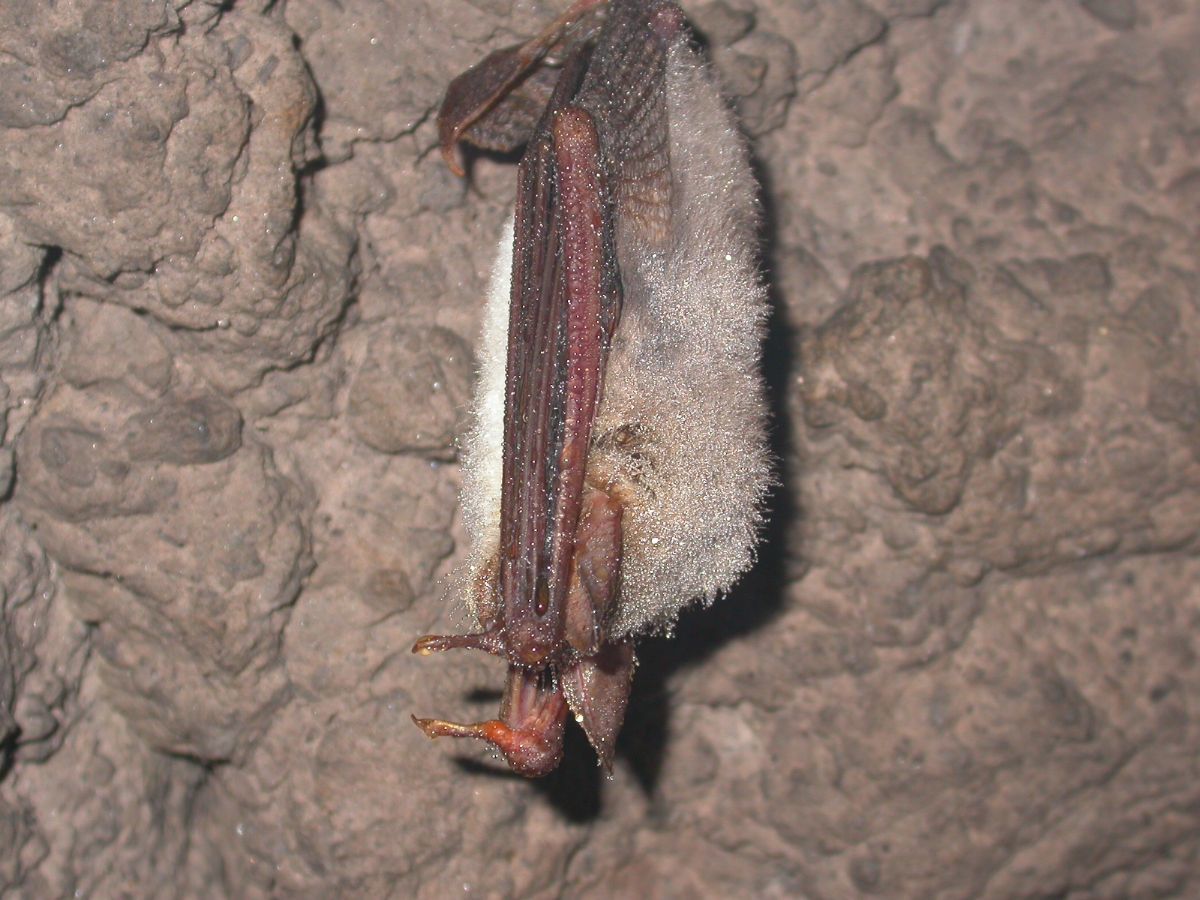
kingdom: Animalia
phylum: Chordata
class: Mammalia
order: Chiroptera
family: Vespertilionidae
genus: Myotis
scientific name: Myotis myotis
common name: Greater mouse-eared bat
